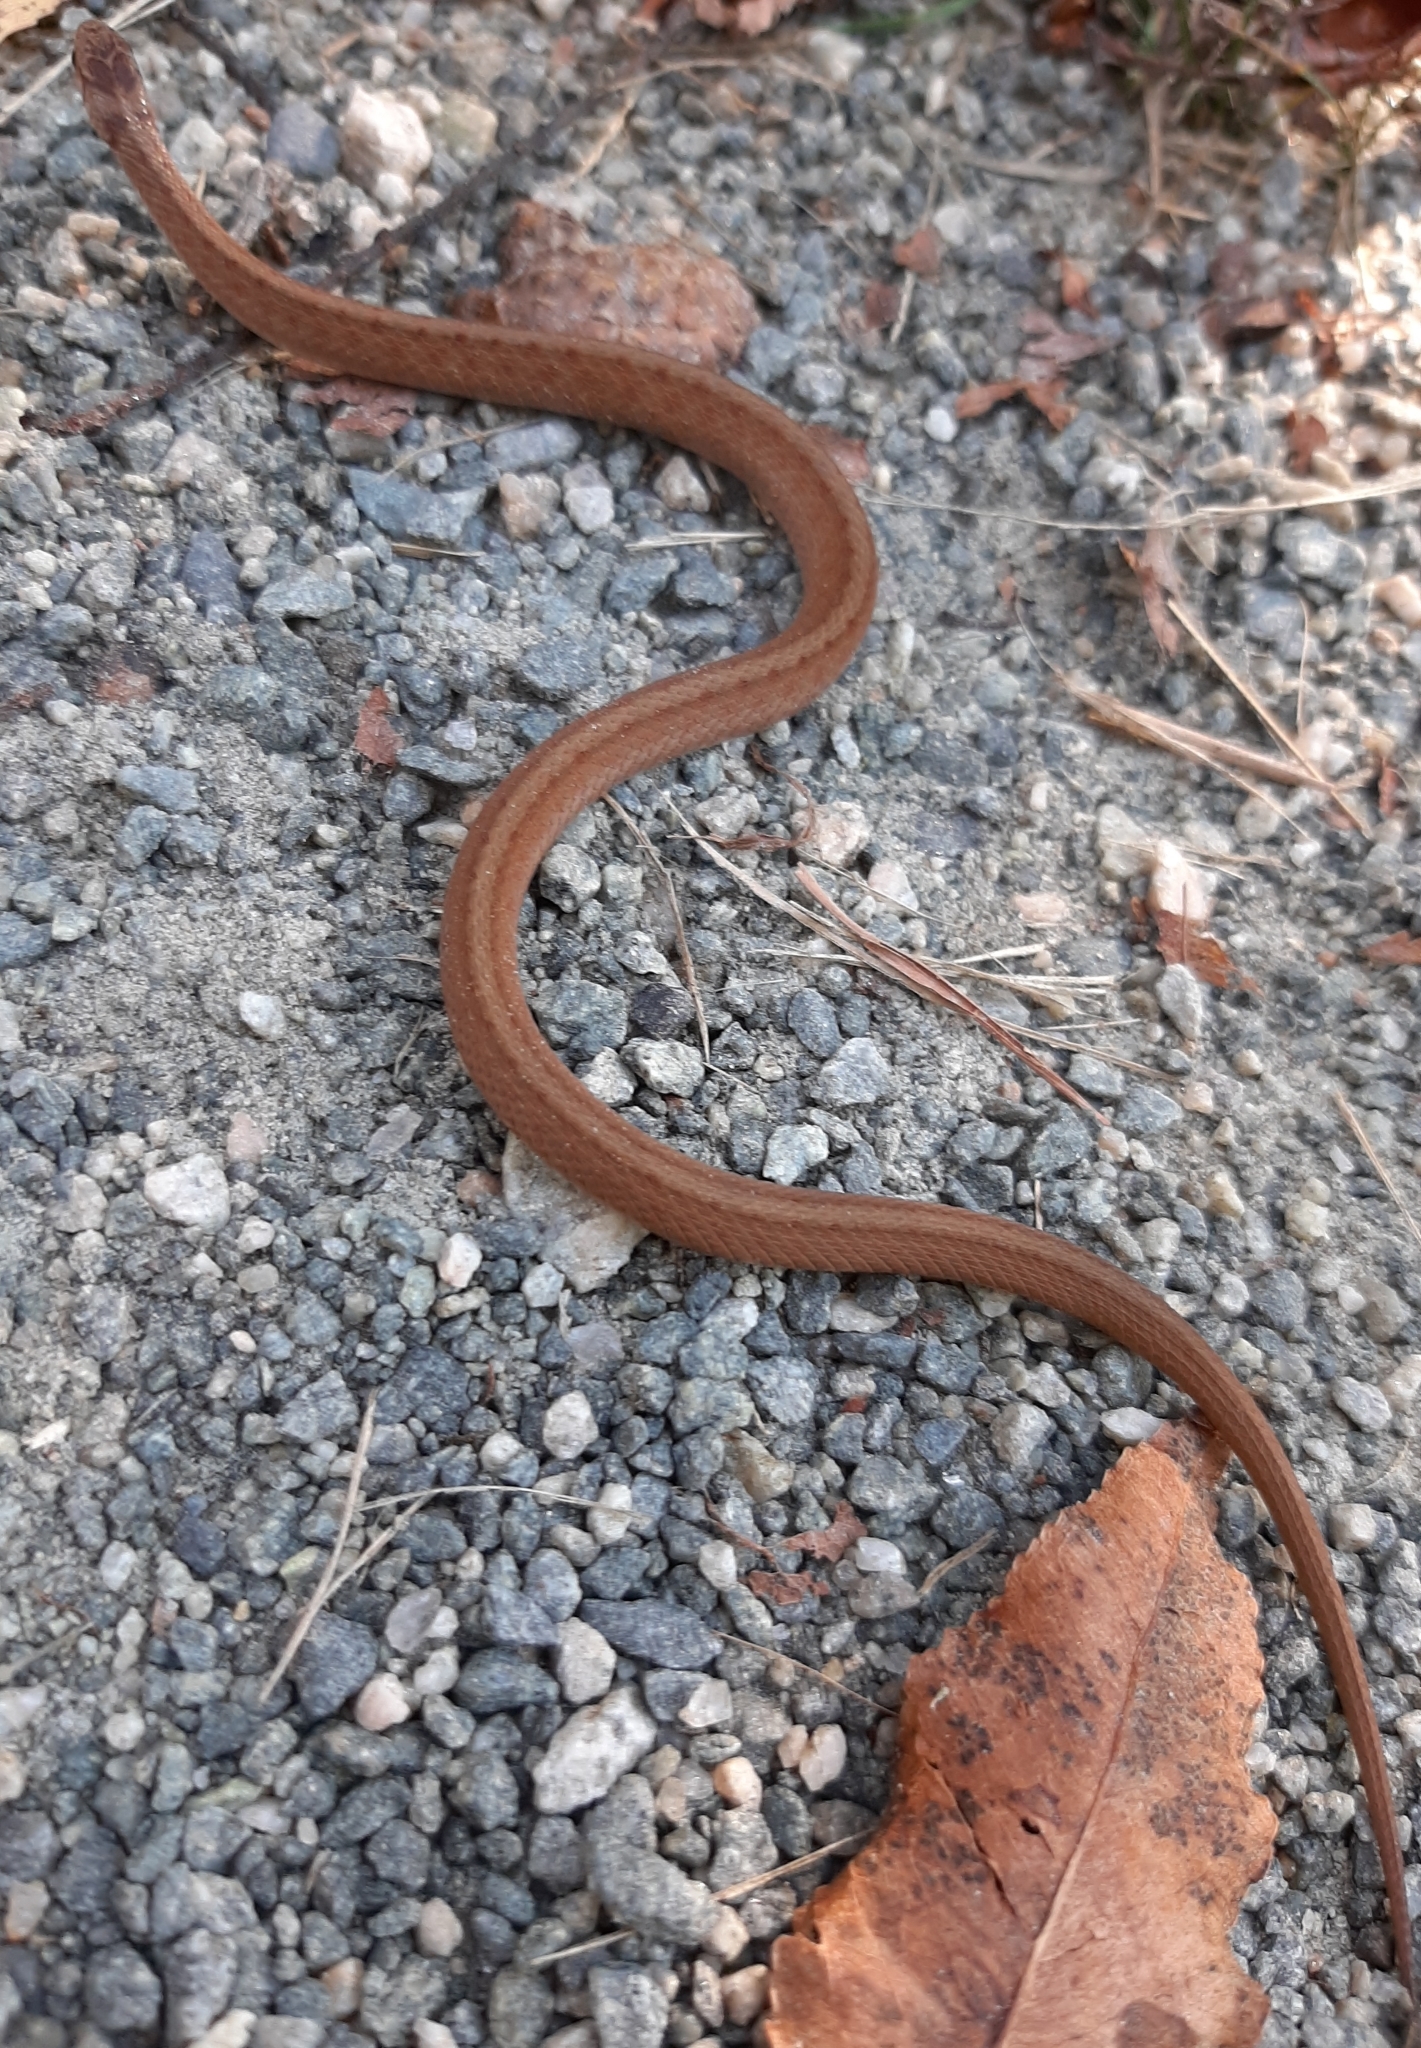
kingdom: Animalia
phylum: Chordata
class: Squamata
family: Colubridae
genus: Storeria
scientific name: Storeria dekayi
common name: (dekay’s) brown snake
